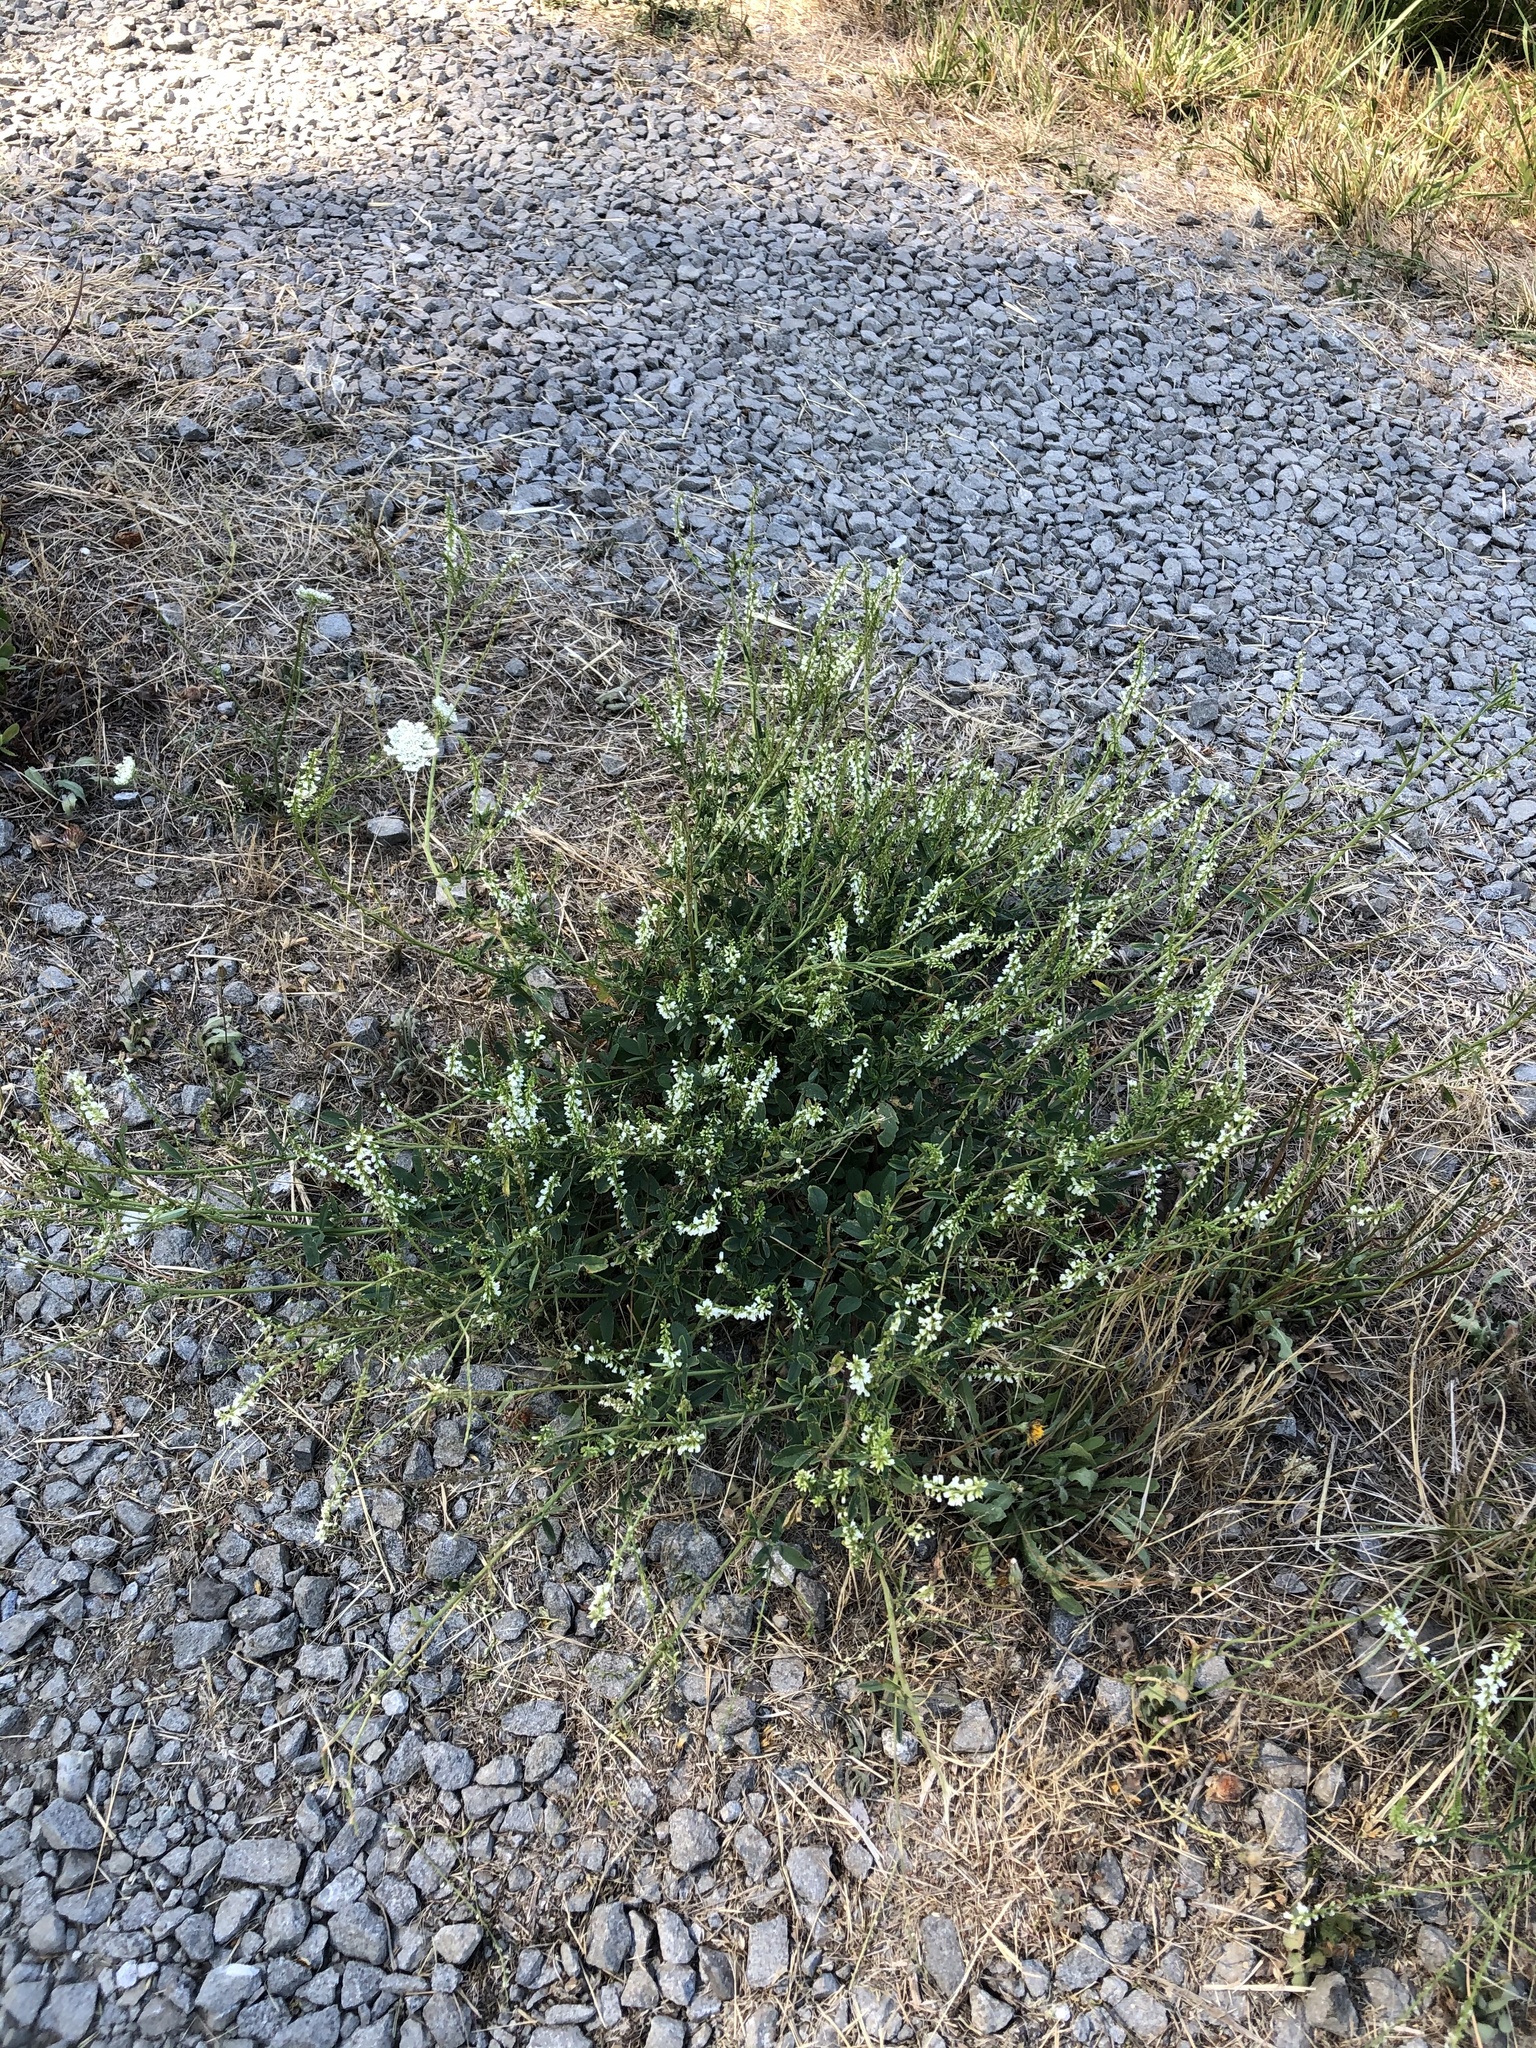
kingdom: Plantae
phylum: Tracheophyta
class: Magnoliopsida
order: Fabales
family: Fabaceae
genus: Melilotus
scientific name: Melilotus albus
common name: White melilot
